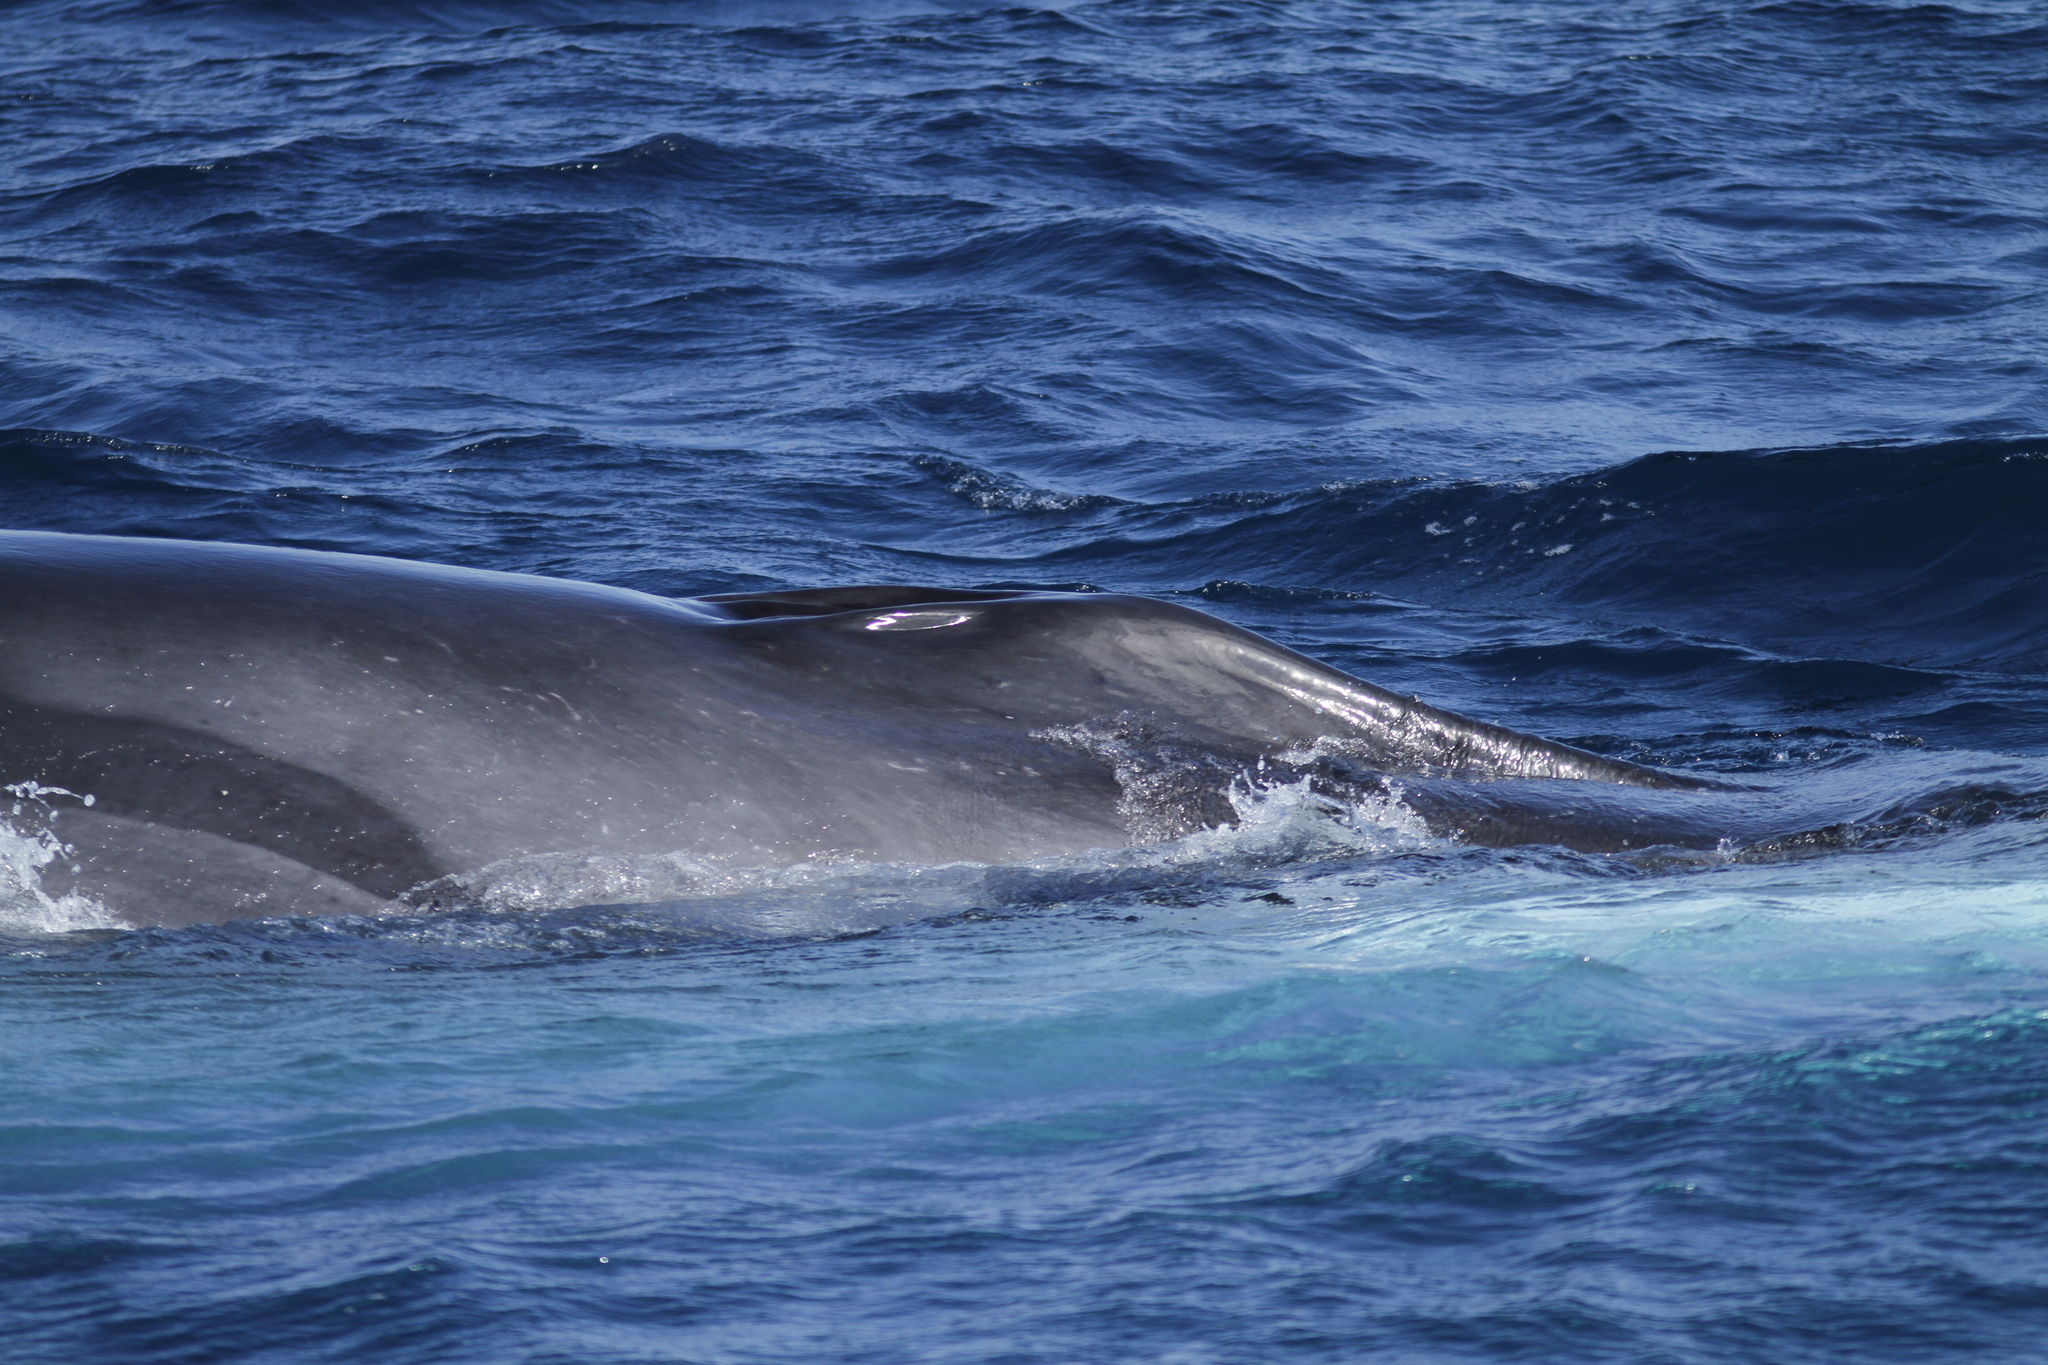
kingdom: Animalia
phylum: Chordata
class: Mammalia
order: Cetacea
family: Balaenopteridae
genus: Balaenoptera
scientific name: Balaenoptera physalus
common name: Fin whale
